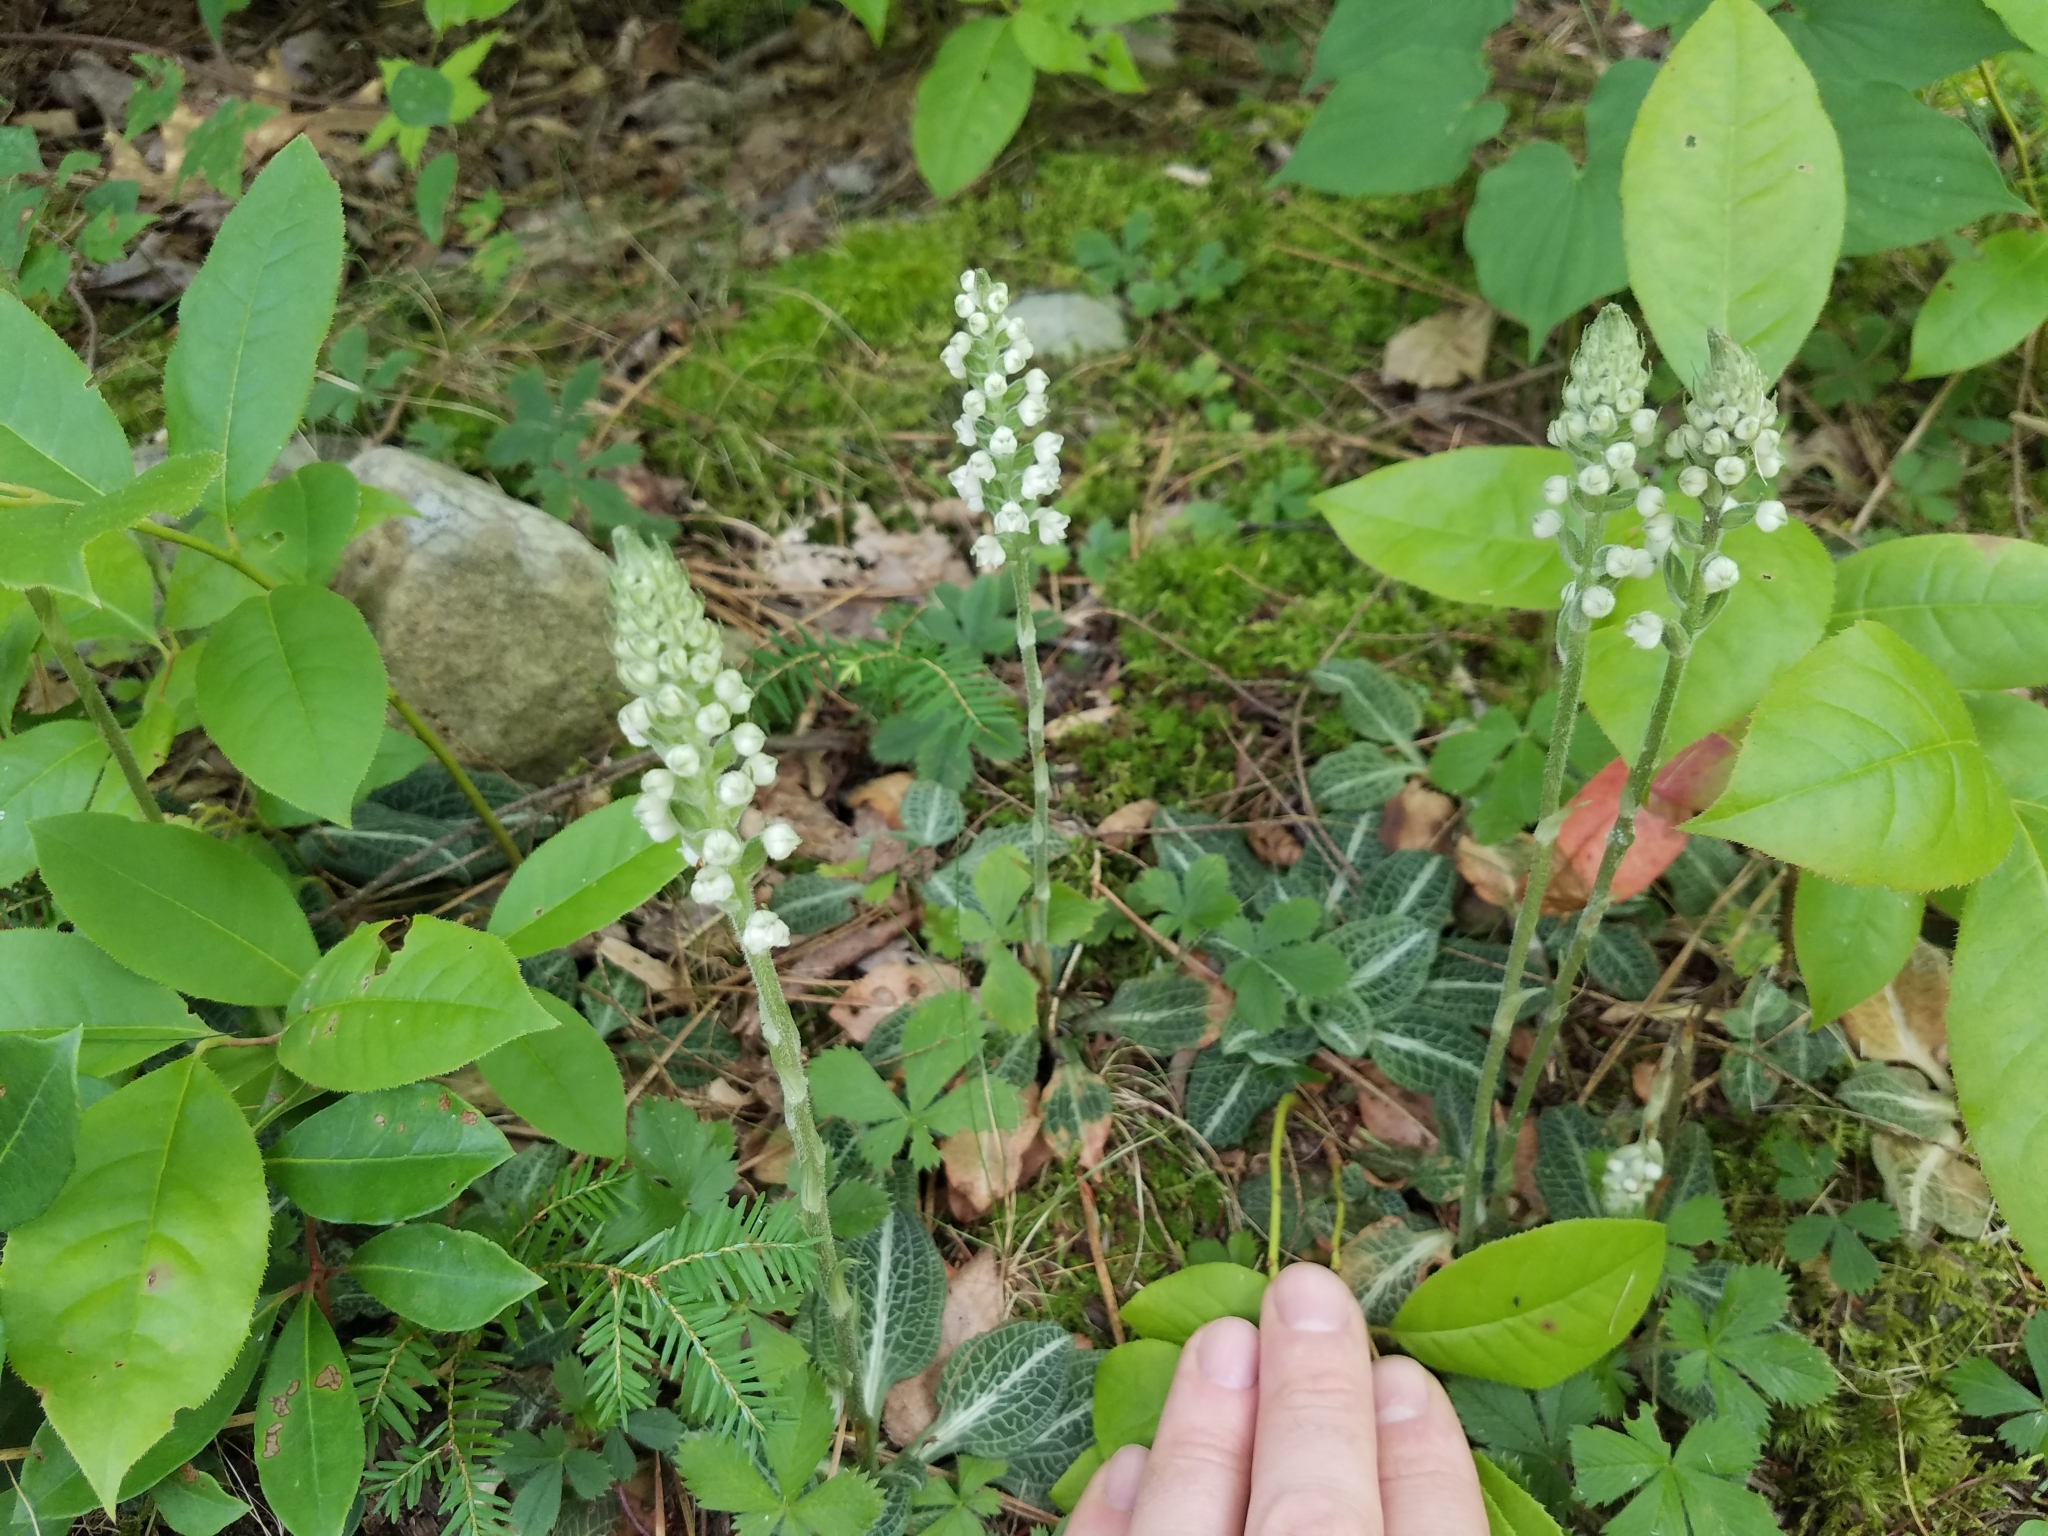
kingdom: Plantae
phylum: Tracheophyta
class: Liliopsida
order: Asparagales
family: Orchidaceae
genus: Goodyera
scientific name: Goodyera pubescens
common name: Downy rattlesnake-plantain
